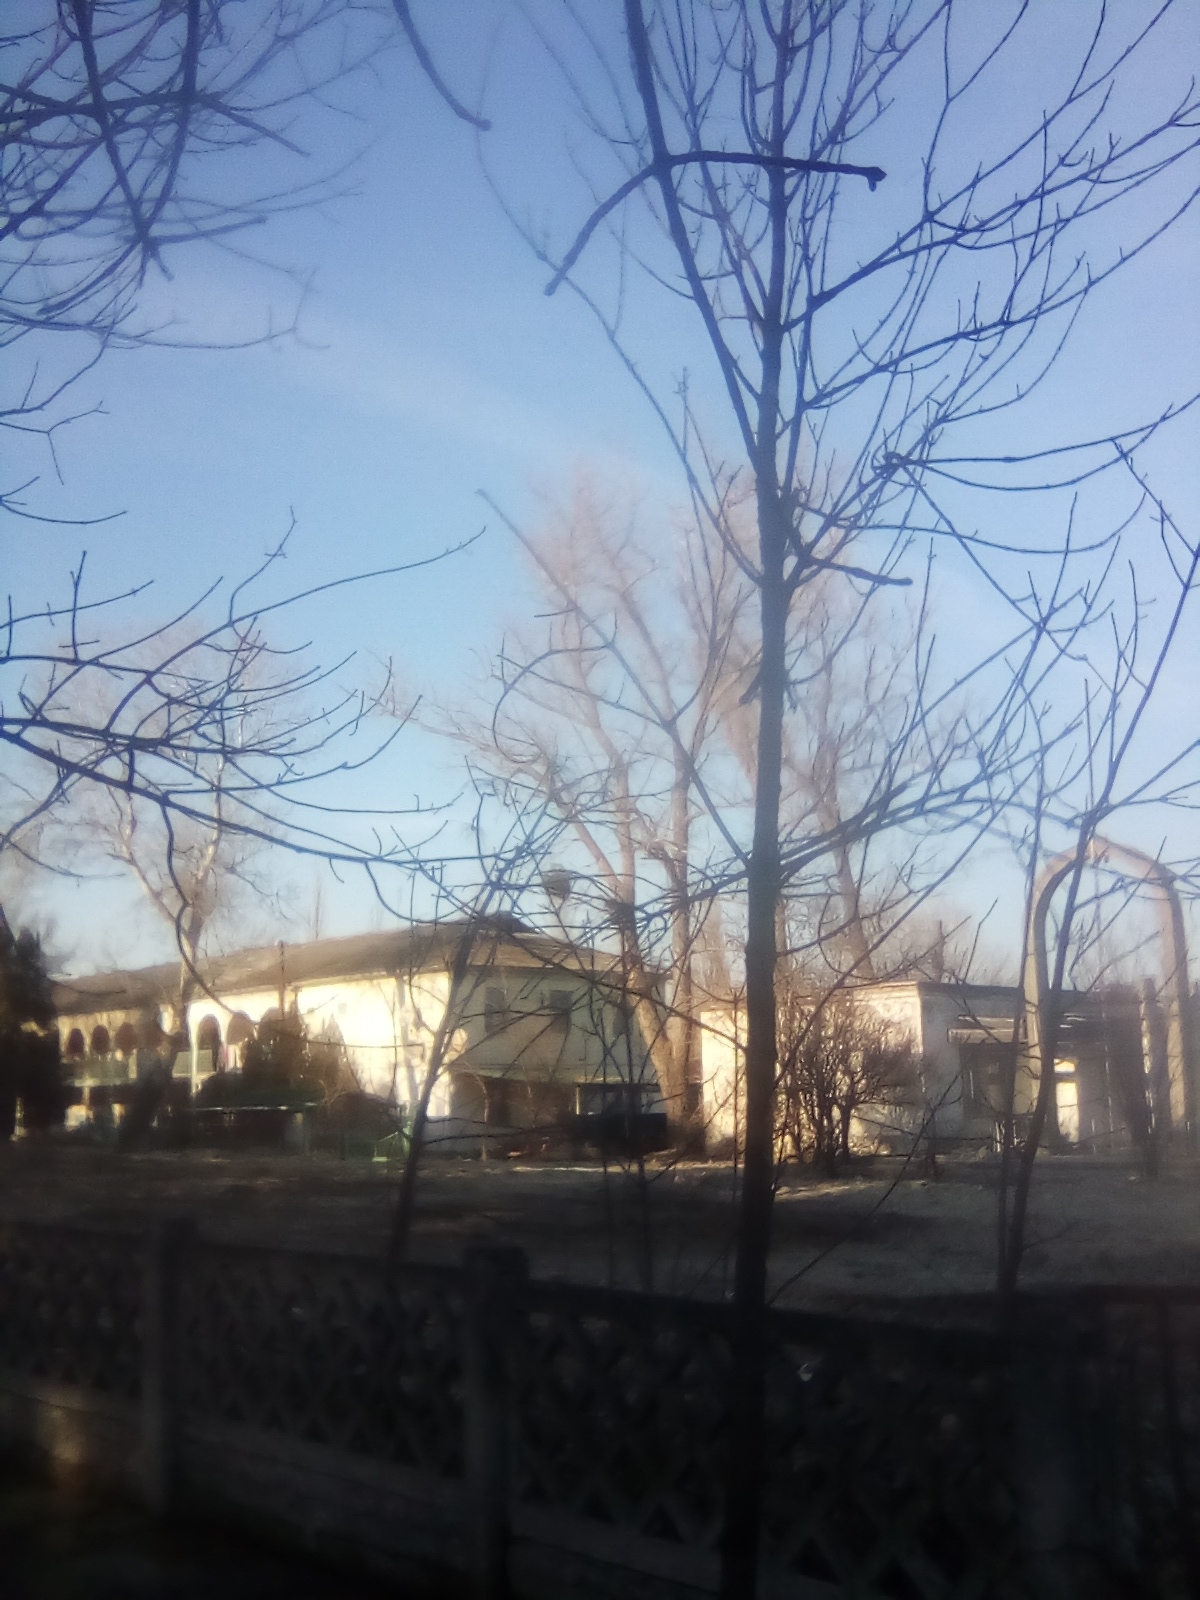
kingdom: Plantae
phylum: Tracheophyta
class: Magnoliopsida
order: Santalales
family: Viscaceae
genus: Viscum
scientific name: Viscum album
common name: Mistletoe
